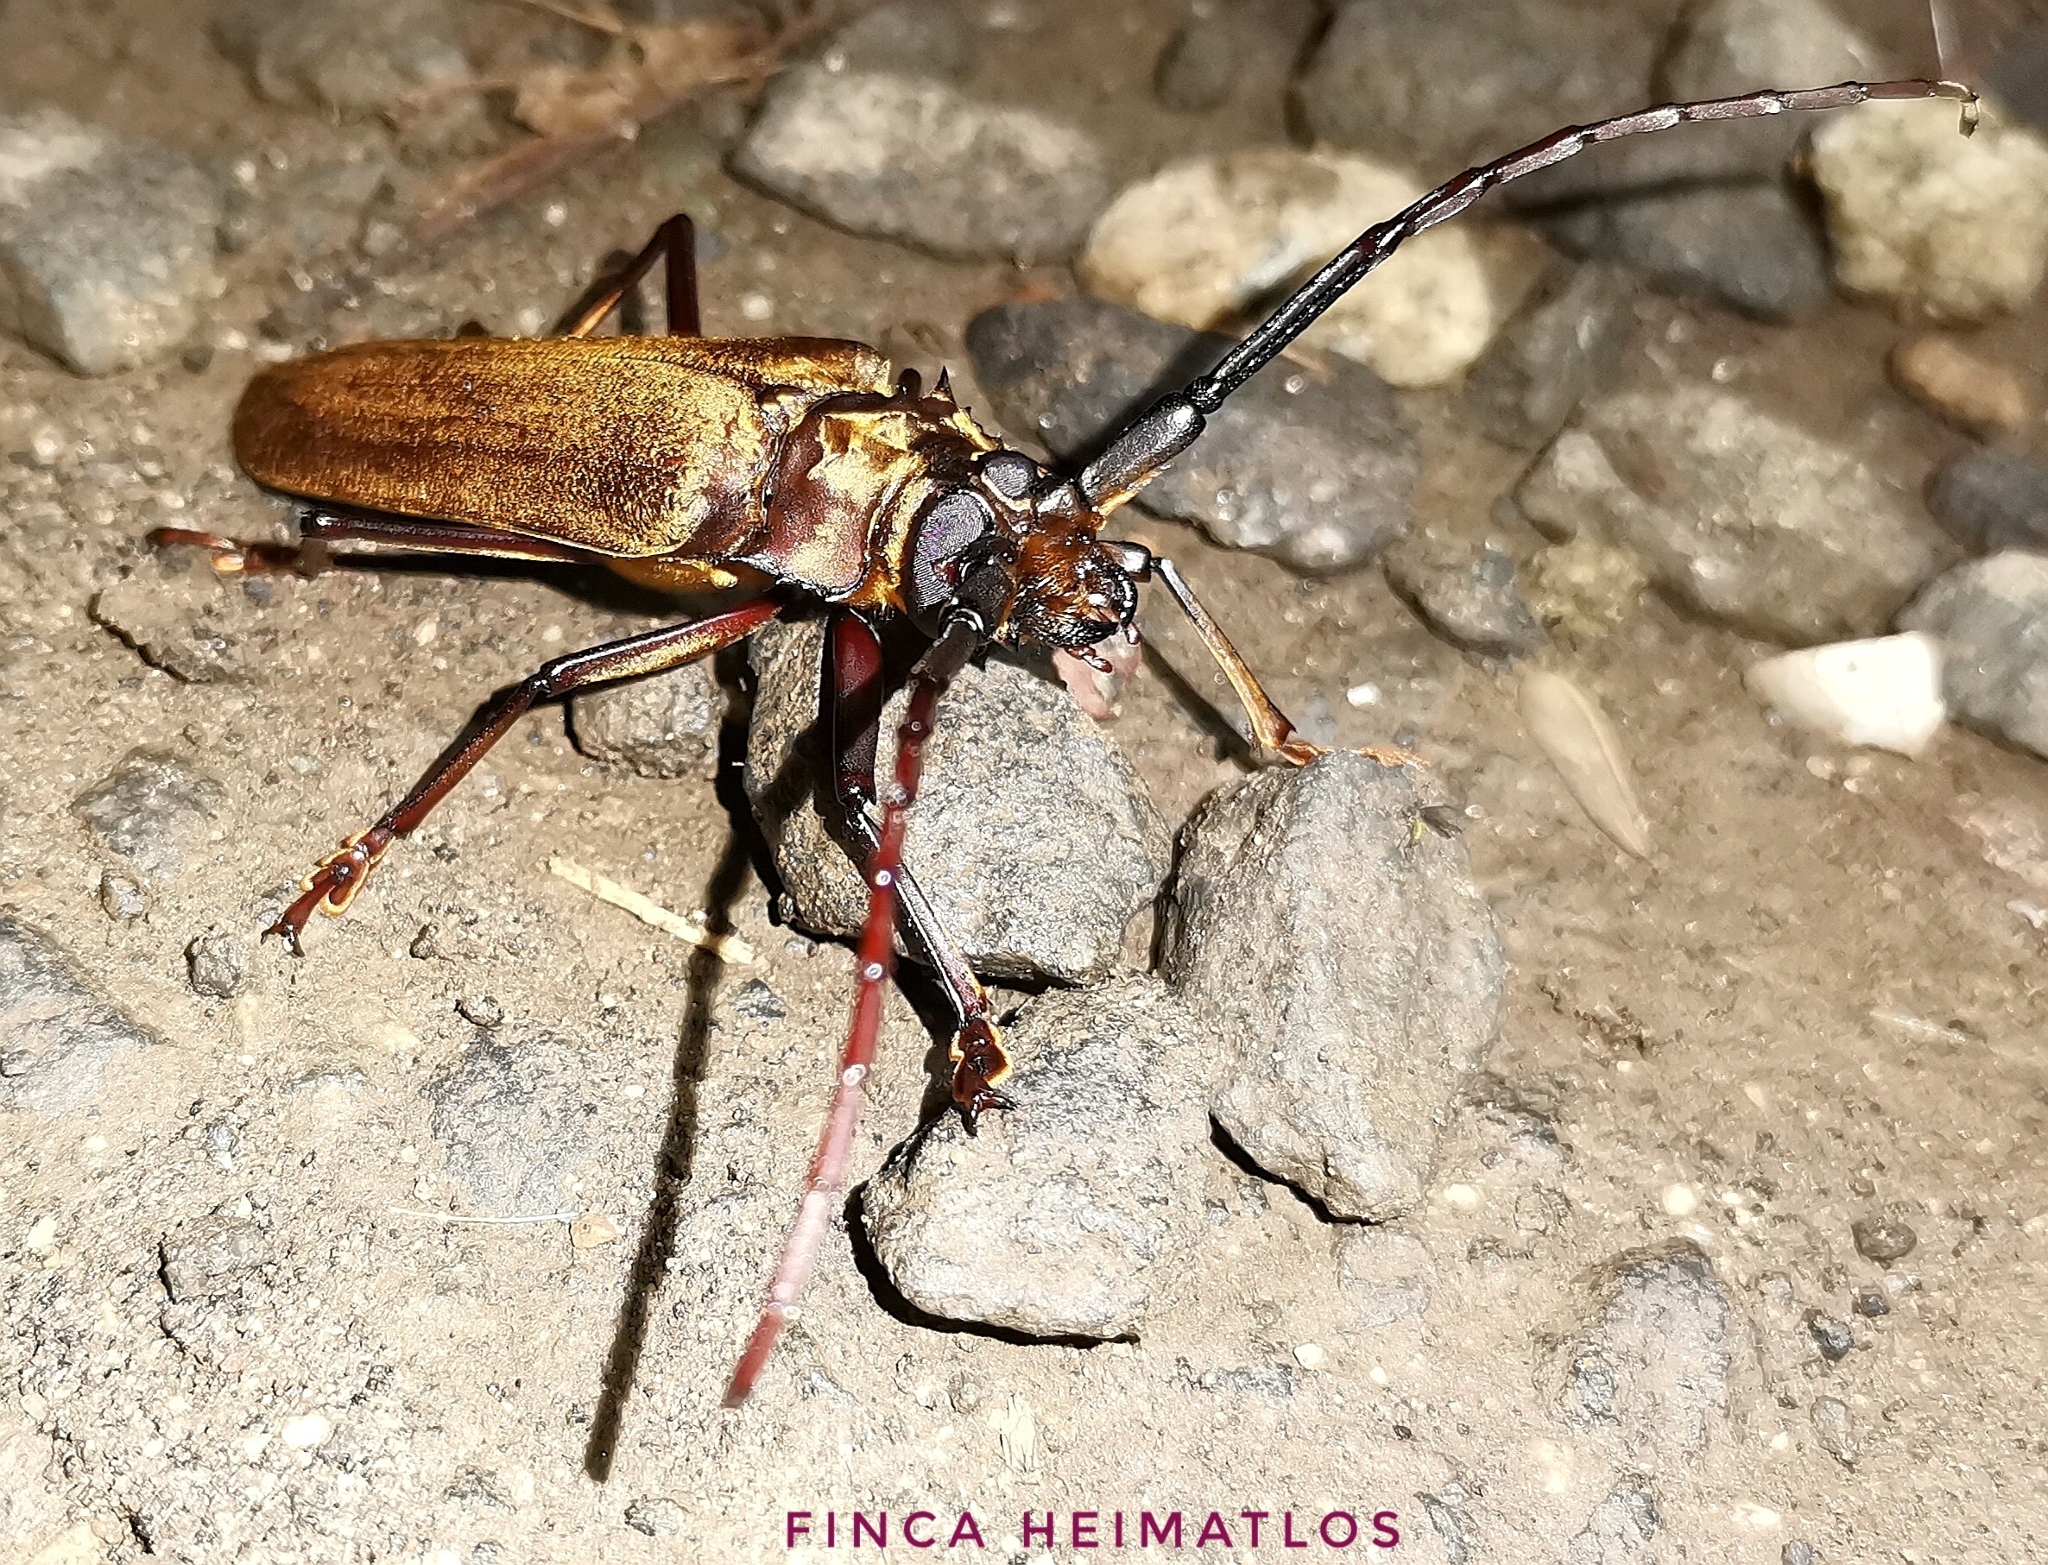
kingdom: Animalia
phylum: Arthropoda
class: Insecta
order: Coleoptera
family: Cerambycidae
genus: Orthomegas
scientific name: Orthomegas haxairei
